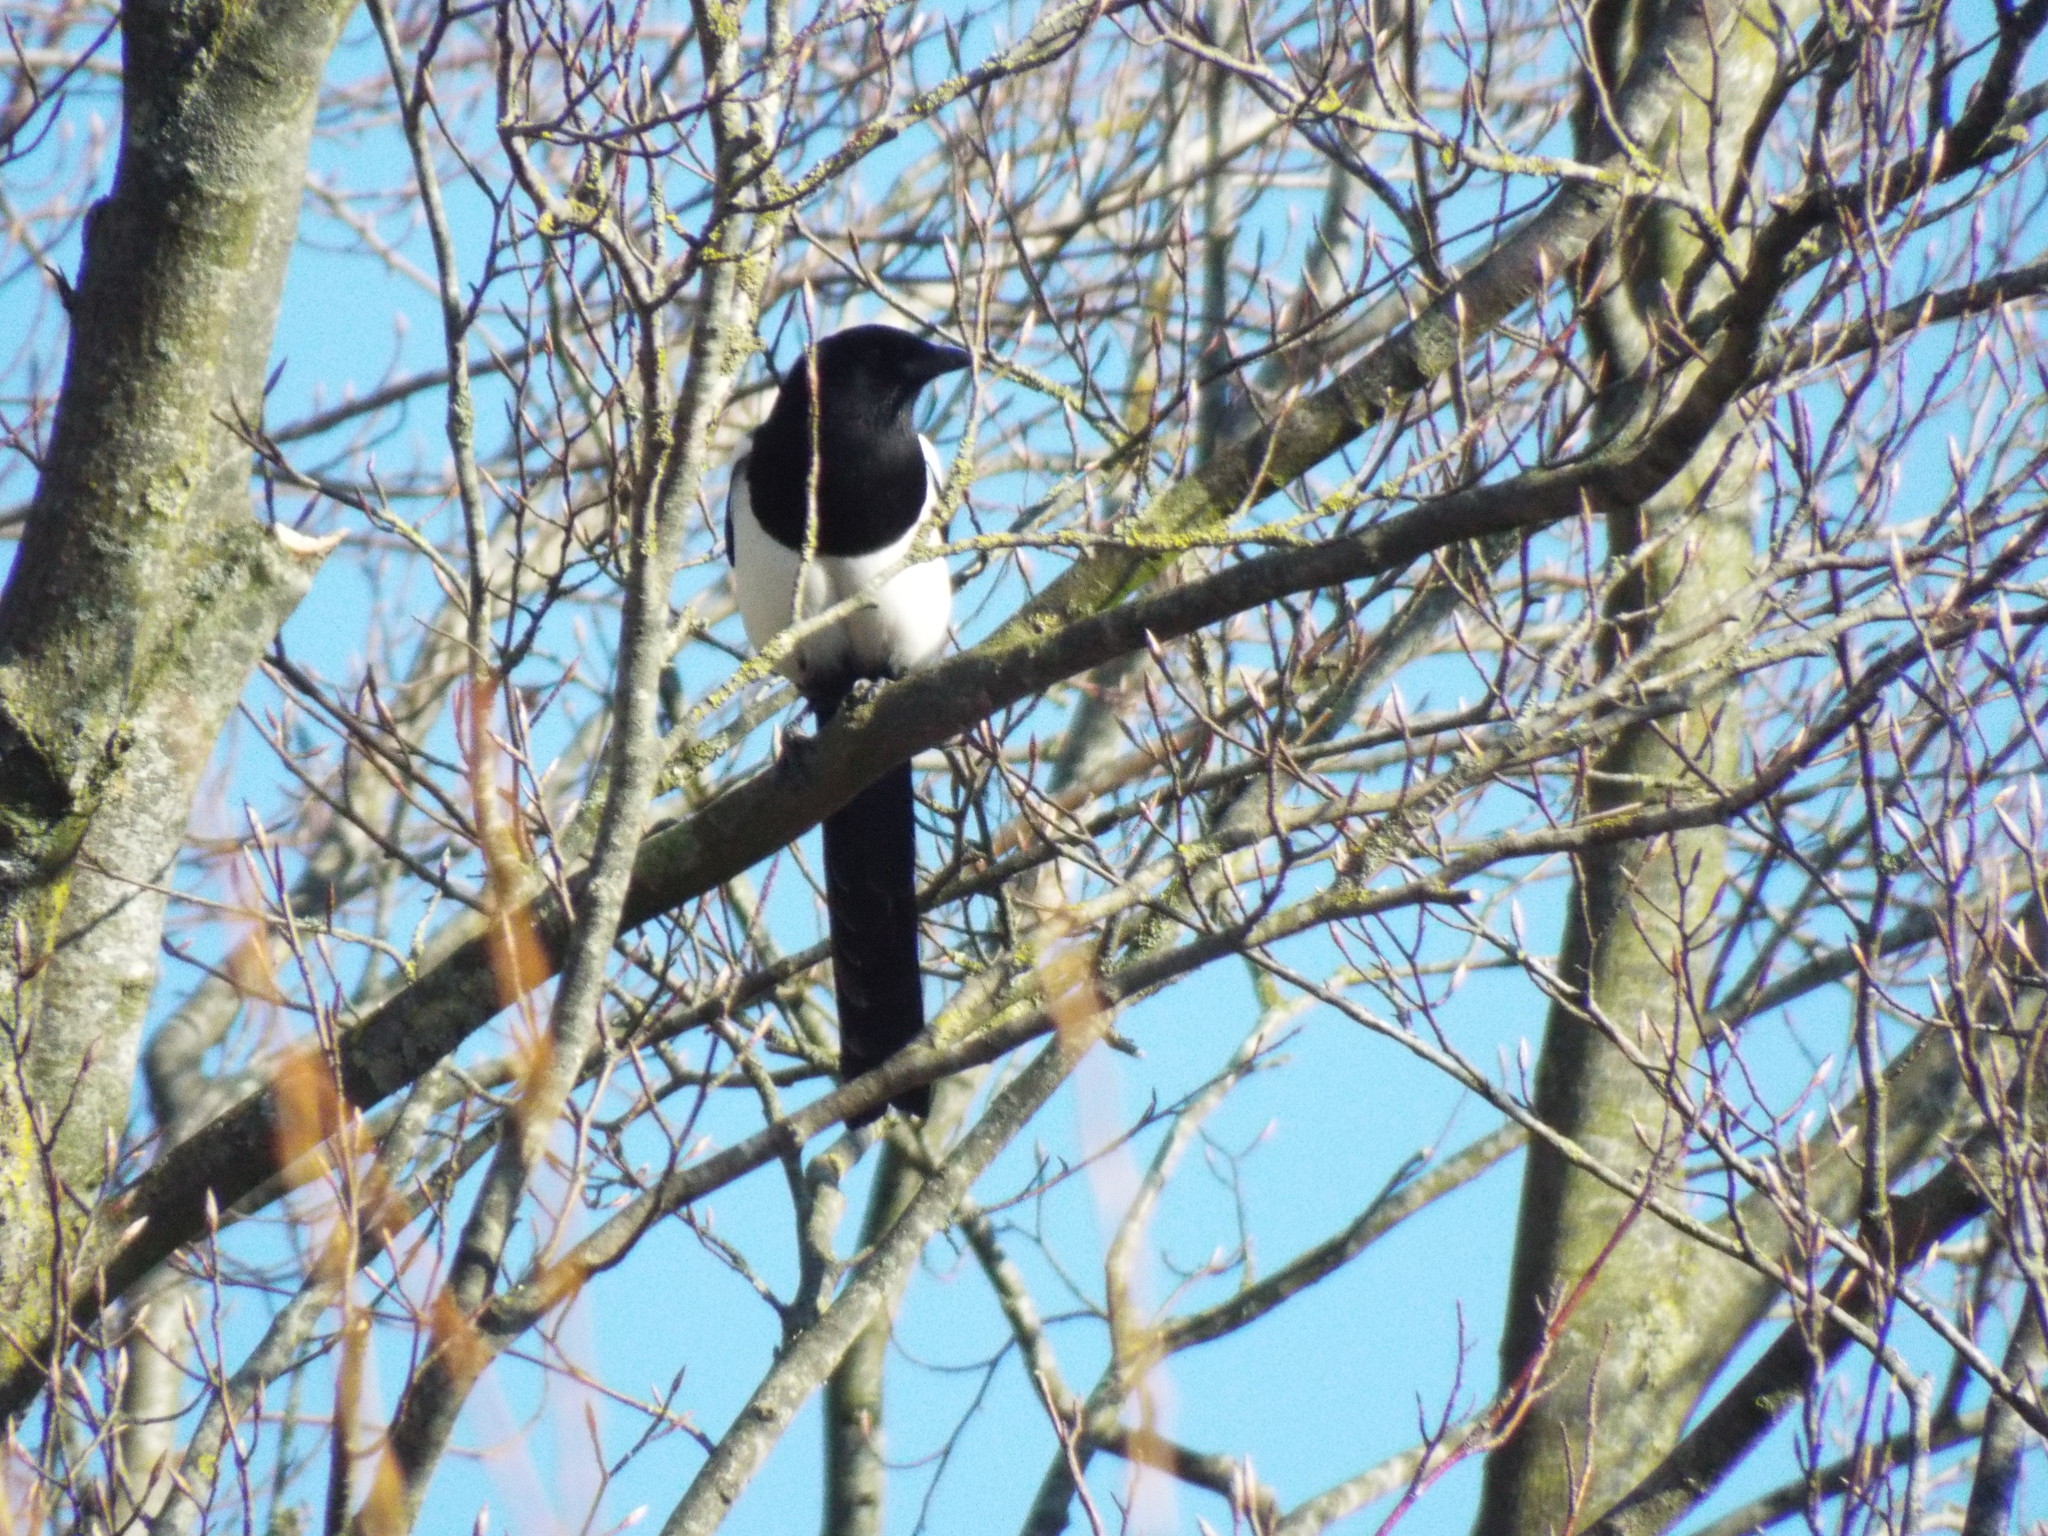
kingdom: Animalia
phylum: Chordata
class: Aves
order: Passeriformes
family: Corvidae
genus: Pica
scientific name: Pica pica
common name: Eurasian magpie
